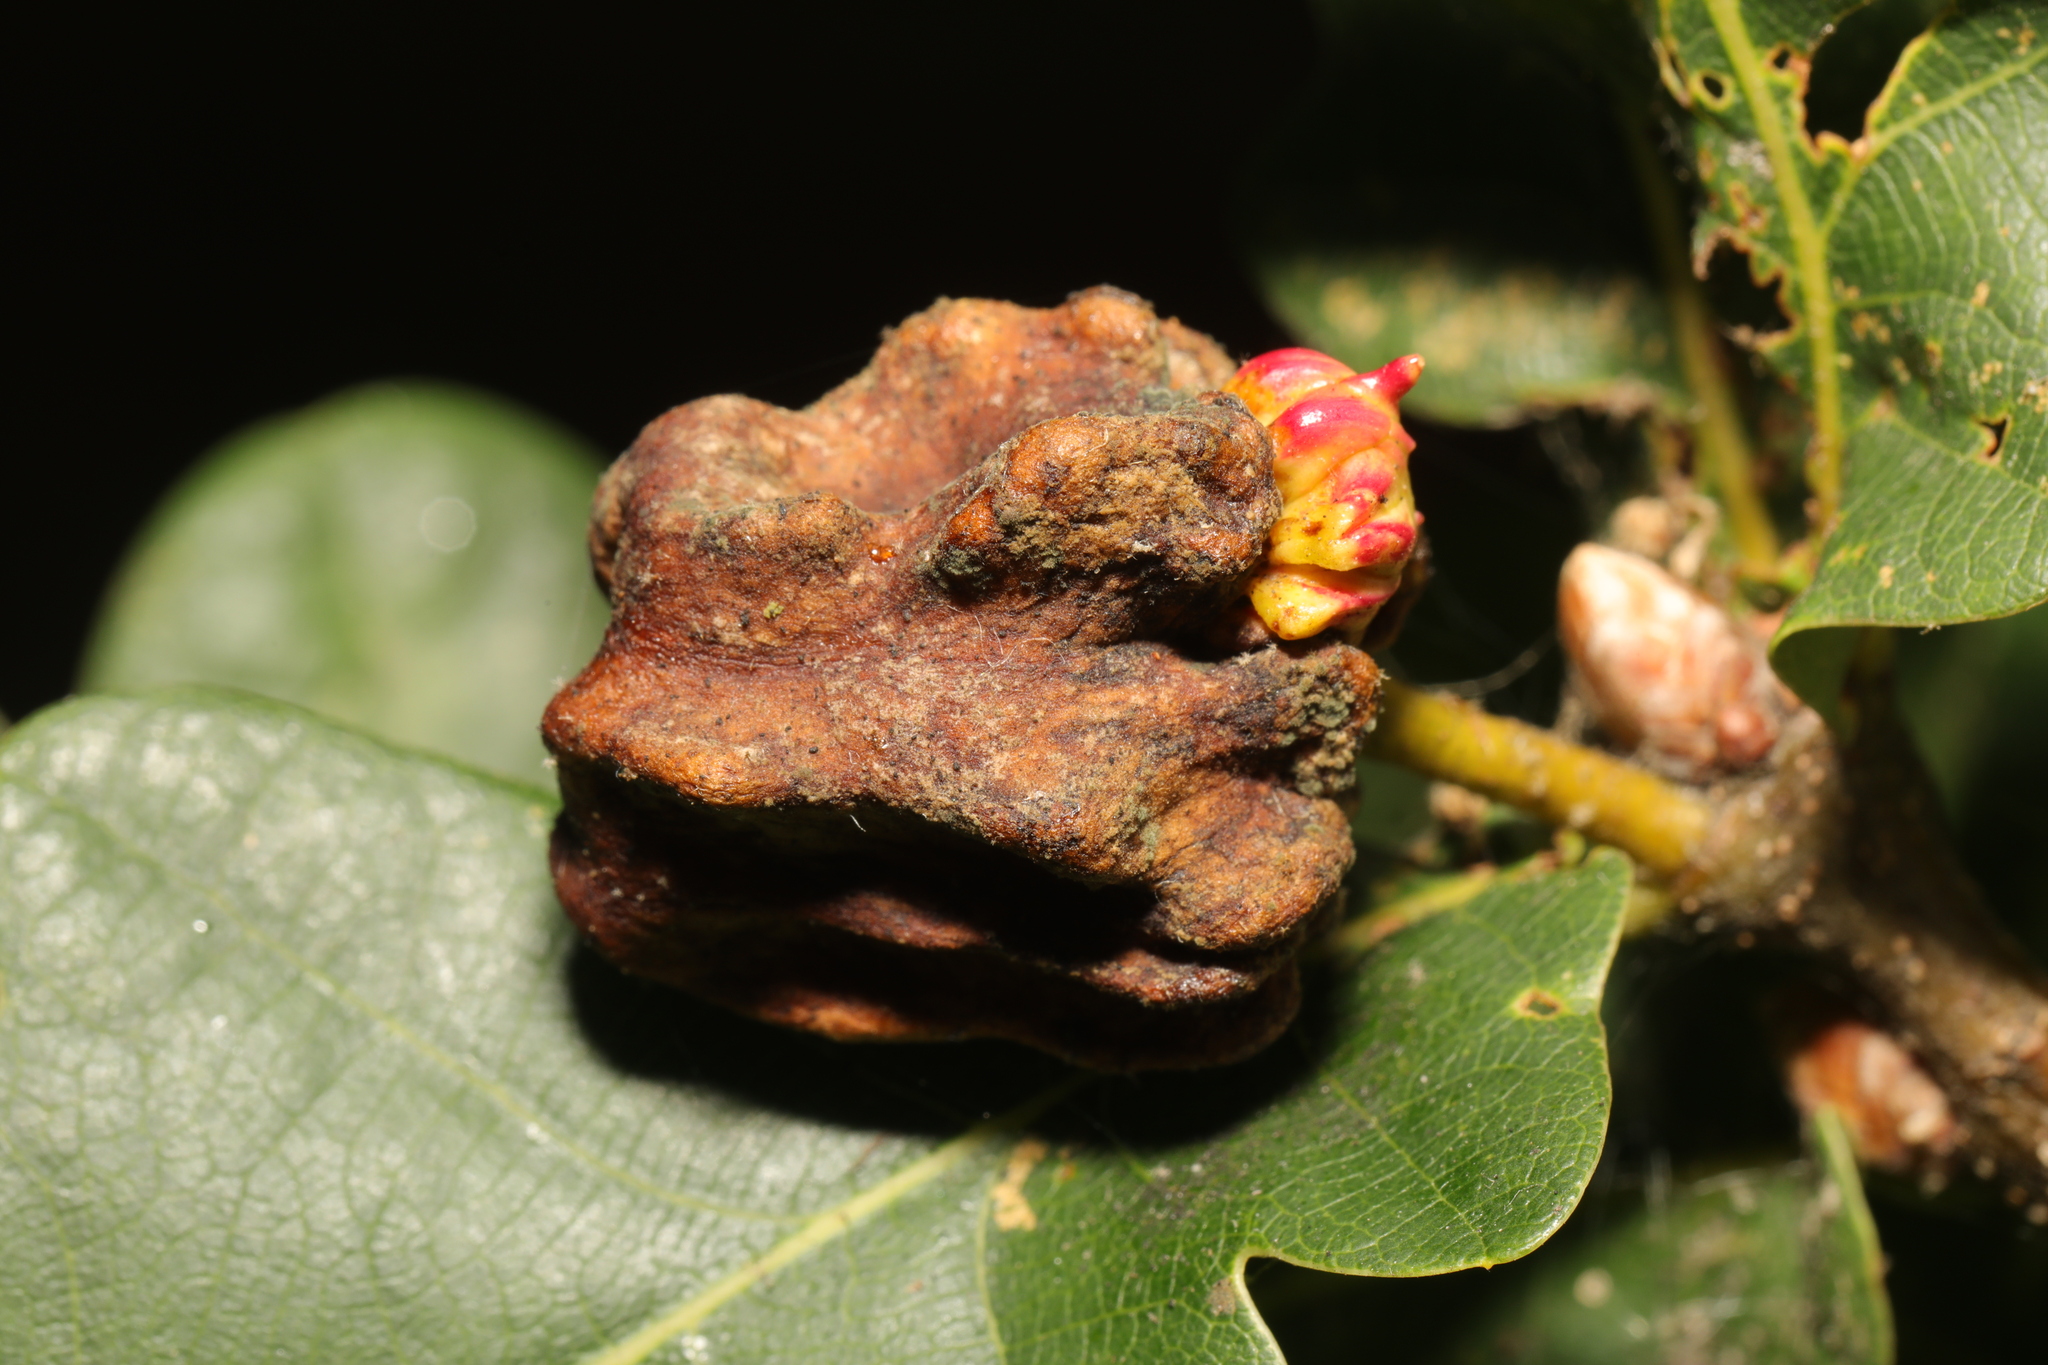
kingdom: Animalia
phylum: Arthropoda
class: Insecta
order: Hymenoptera
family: Cynipidae
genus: Andricus
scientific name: Andricus grossulariae
